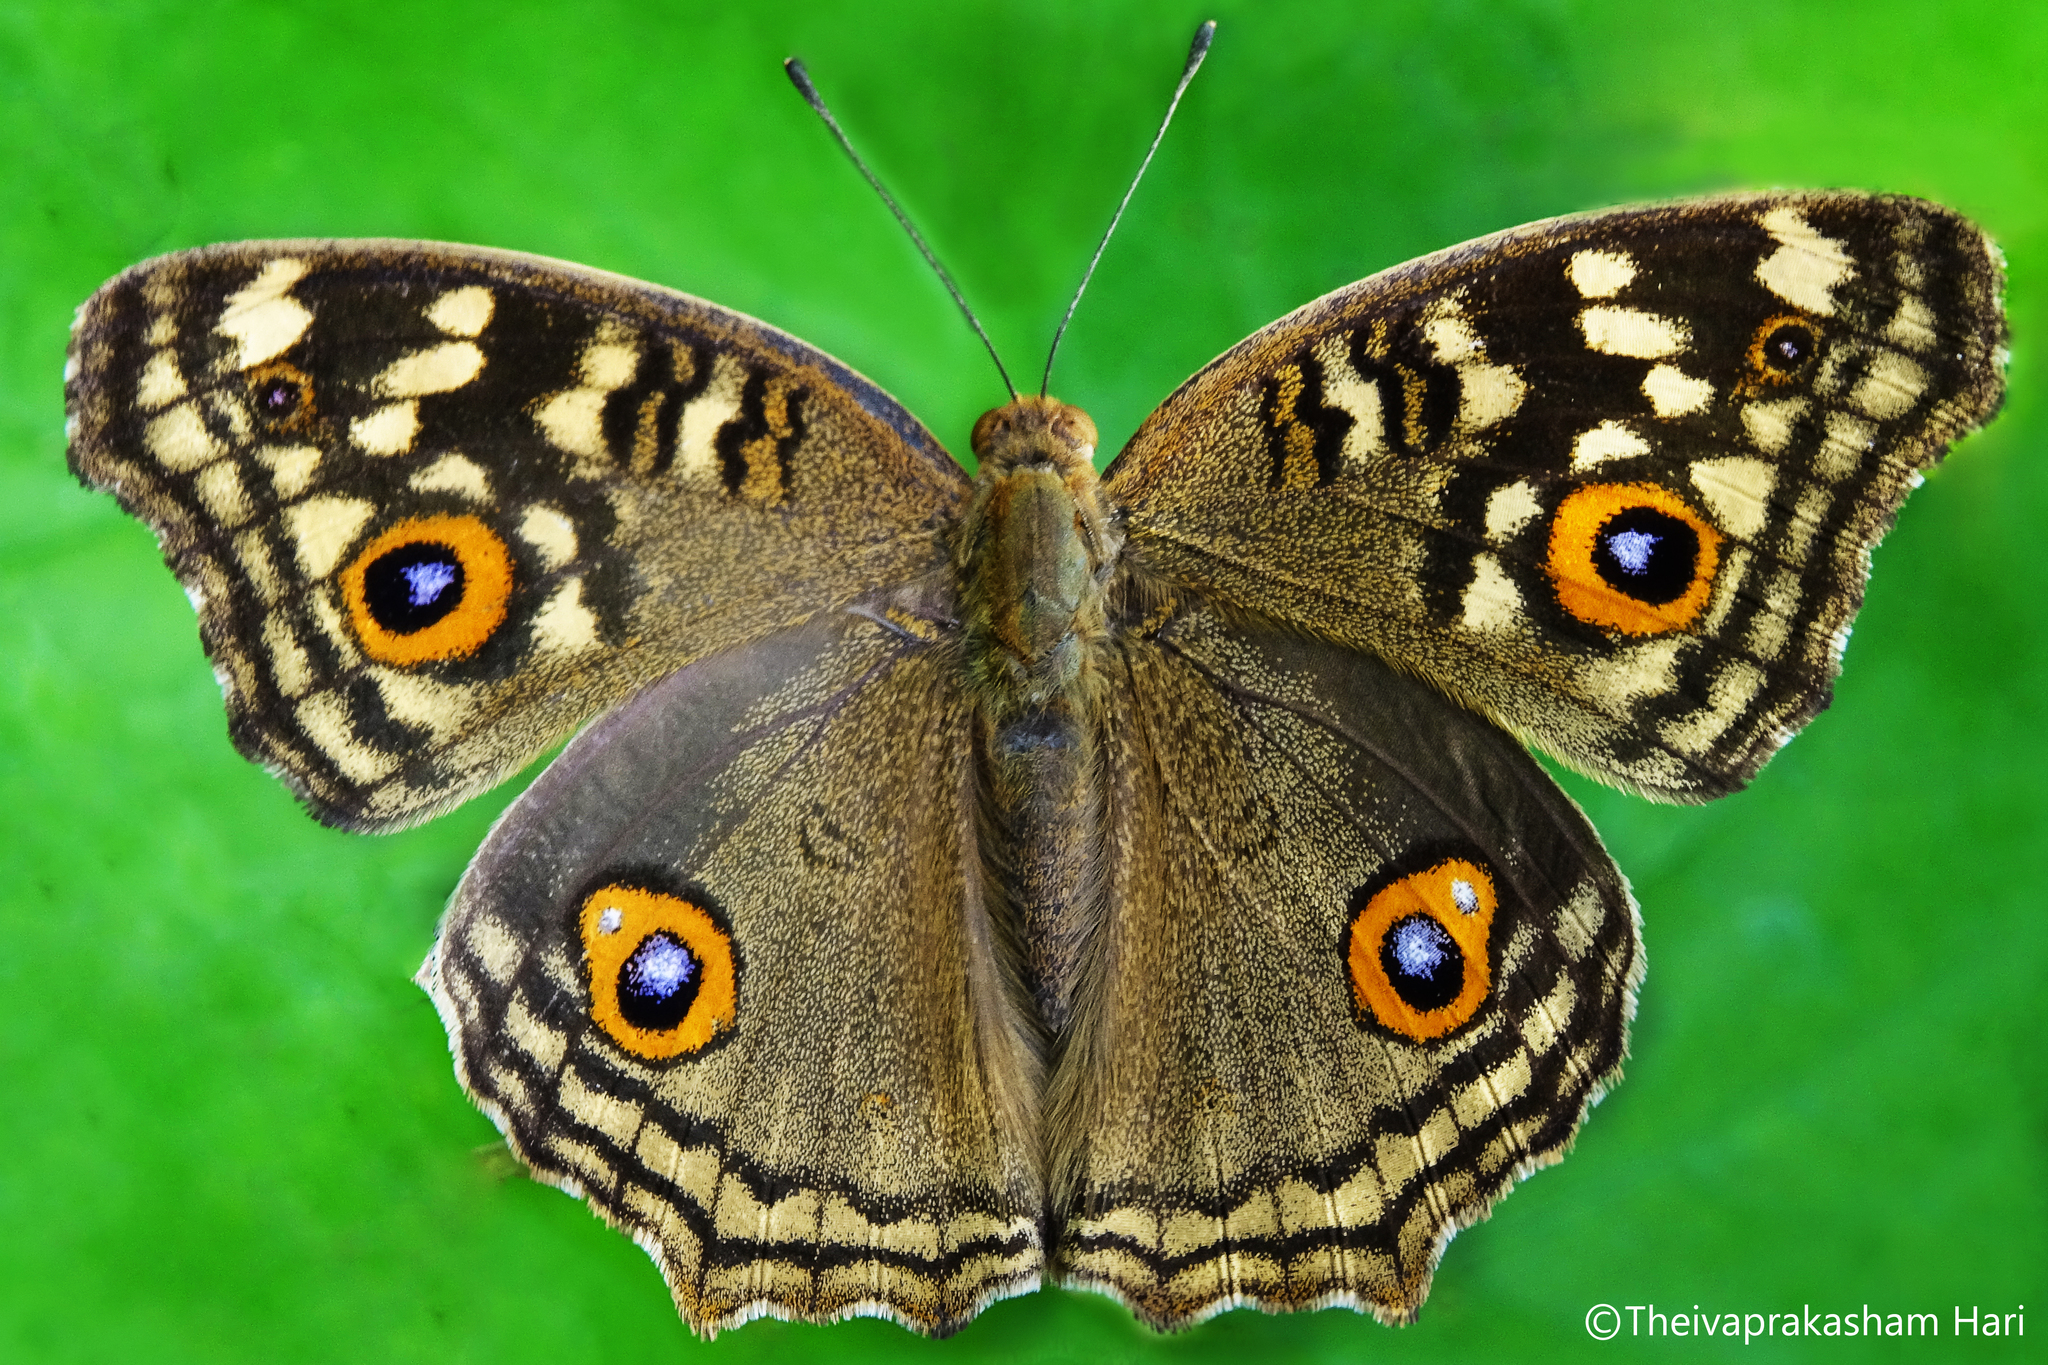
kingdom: Animalia
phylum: Arthropoda
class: Insecta
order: Lepidoptera
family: Nymphalidae
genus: Junonia
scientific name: Junonia lemonias
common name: Lemon pansy
